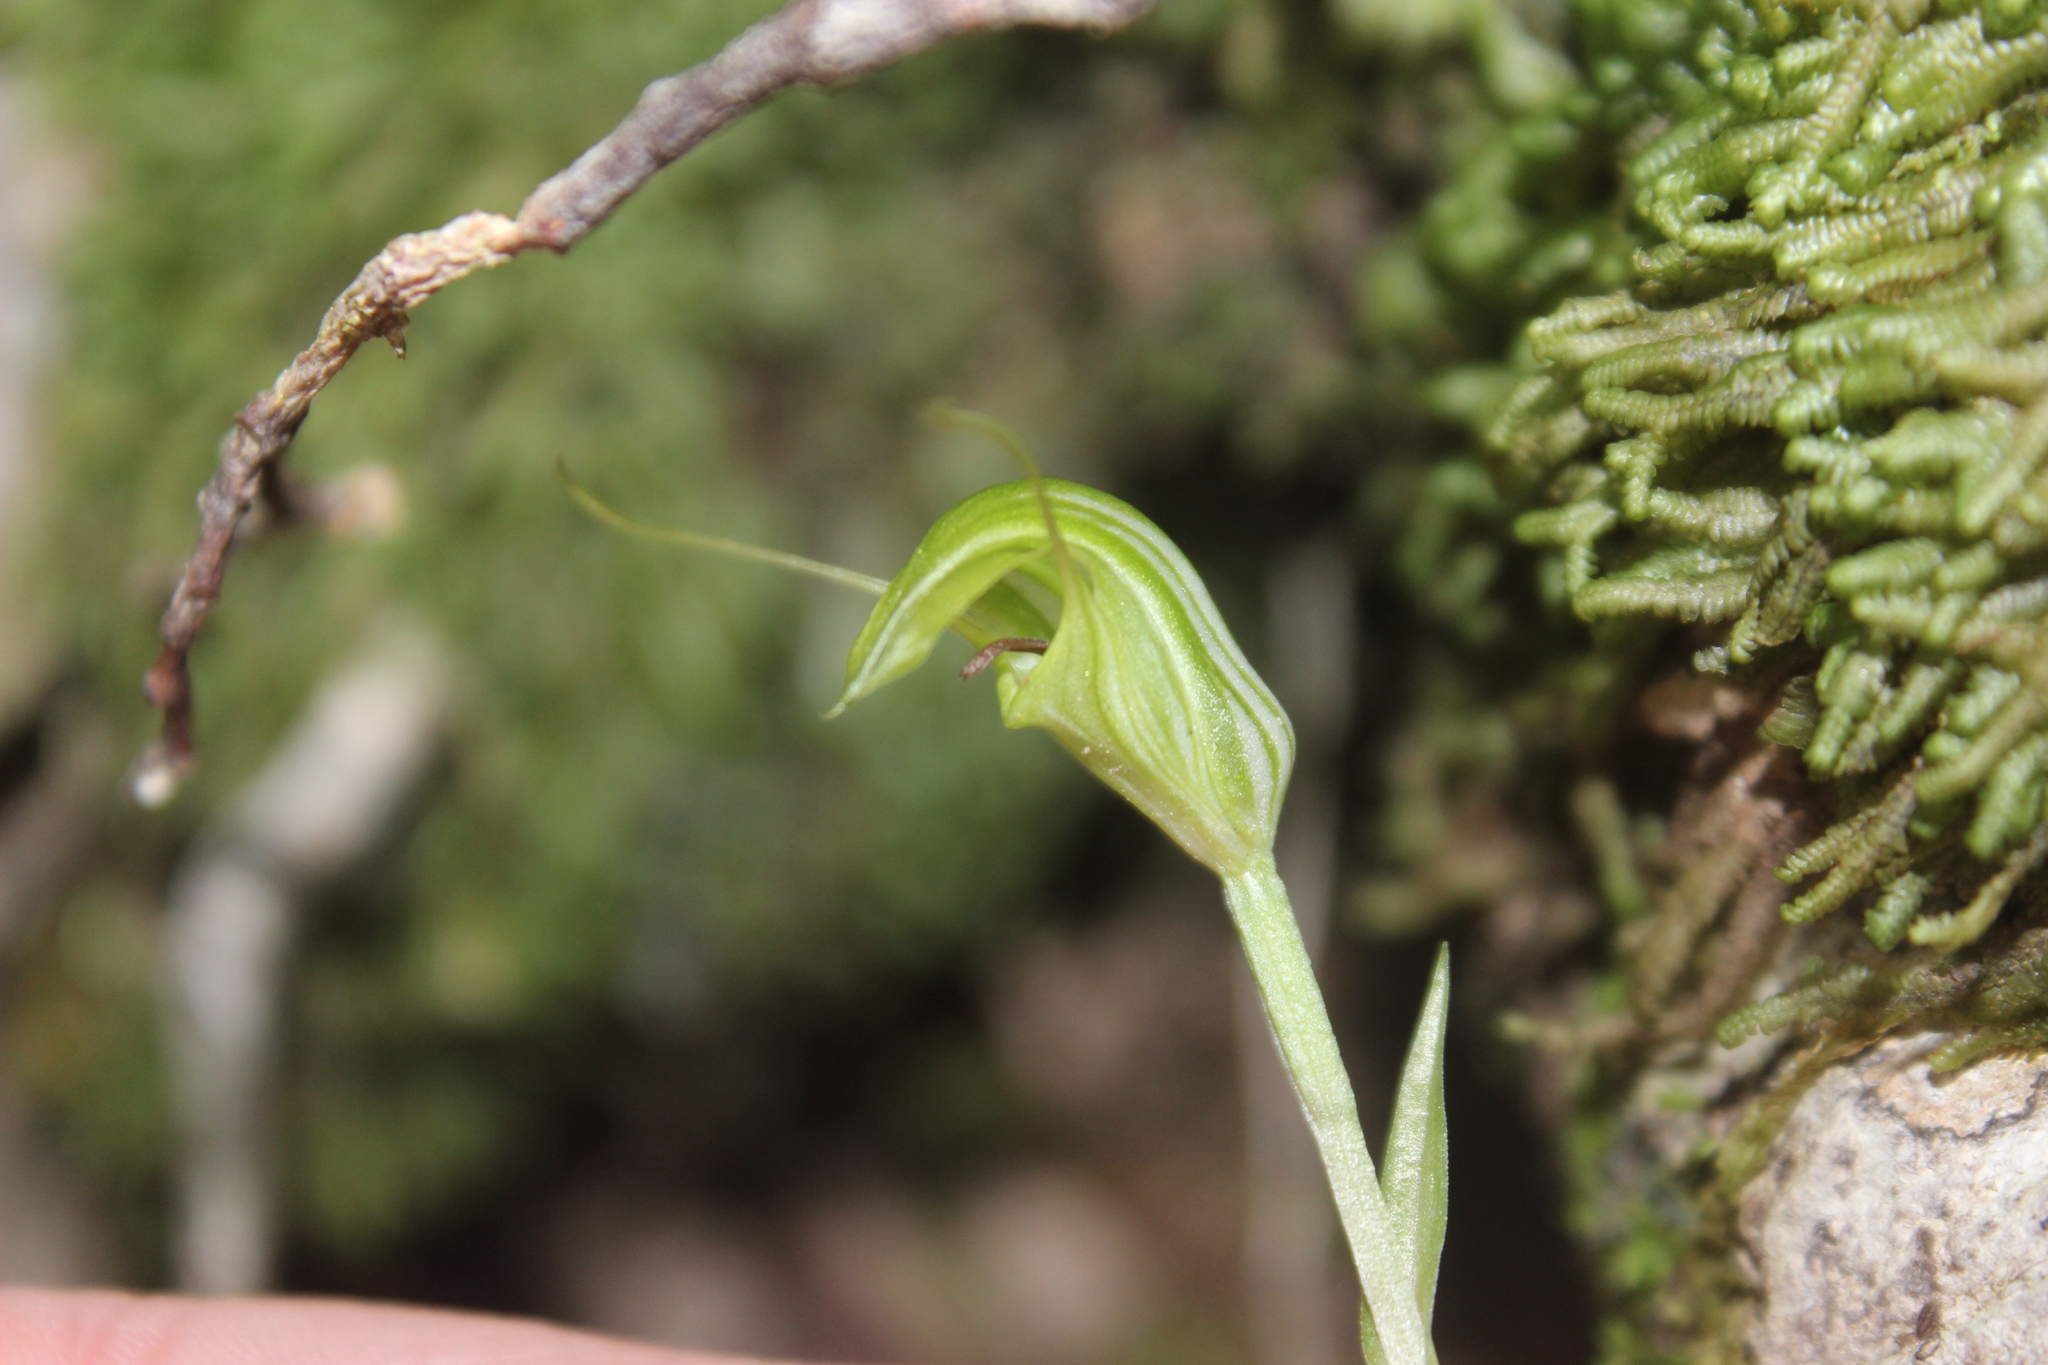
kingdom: Plantae
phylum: Tracheophyta
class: Liliopsida
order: Asparagales
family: Orchidaceae
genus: Pterostylis
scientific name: Pterostylis trullifolia
